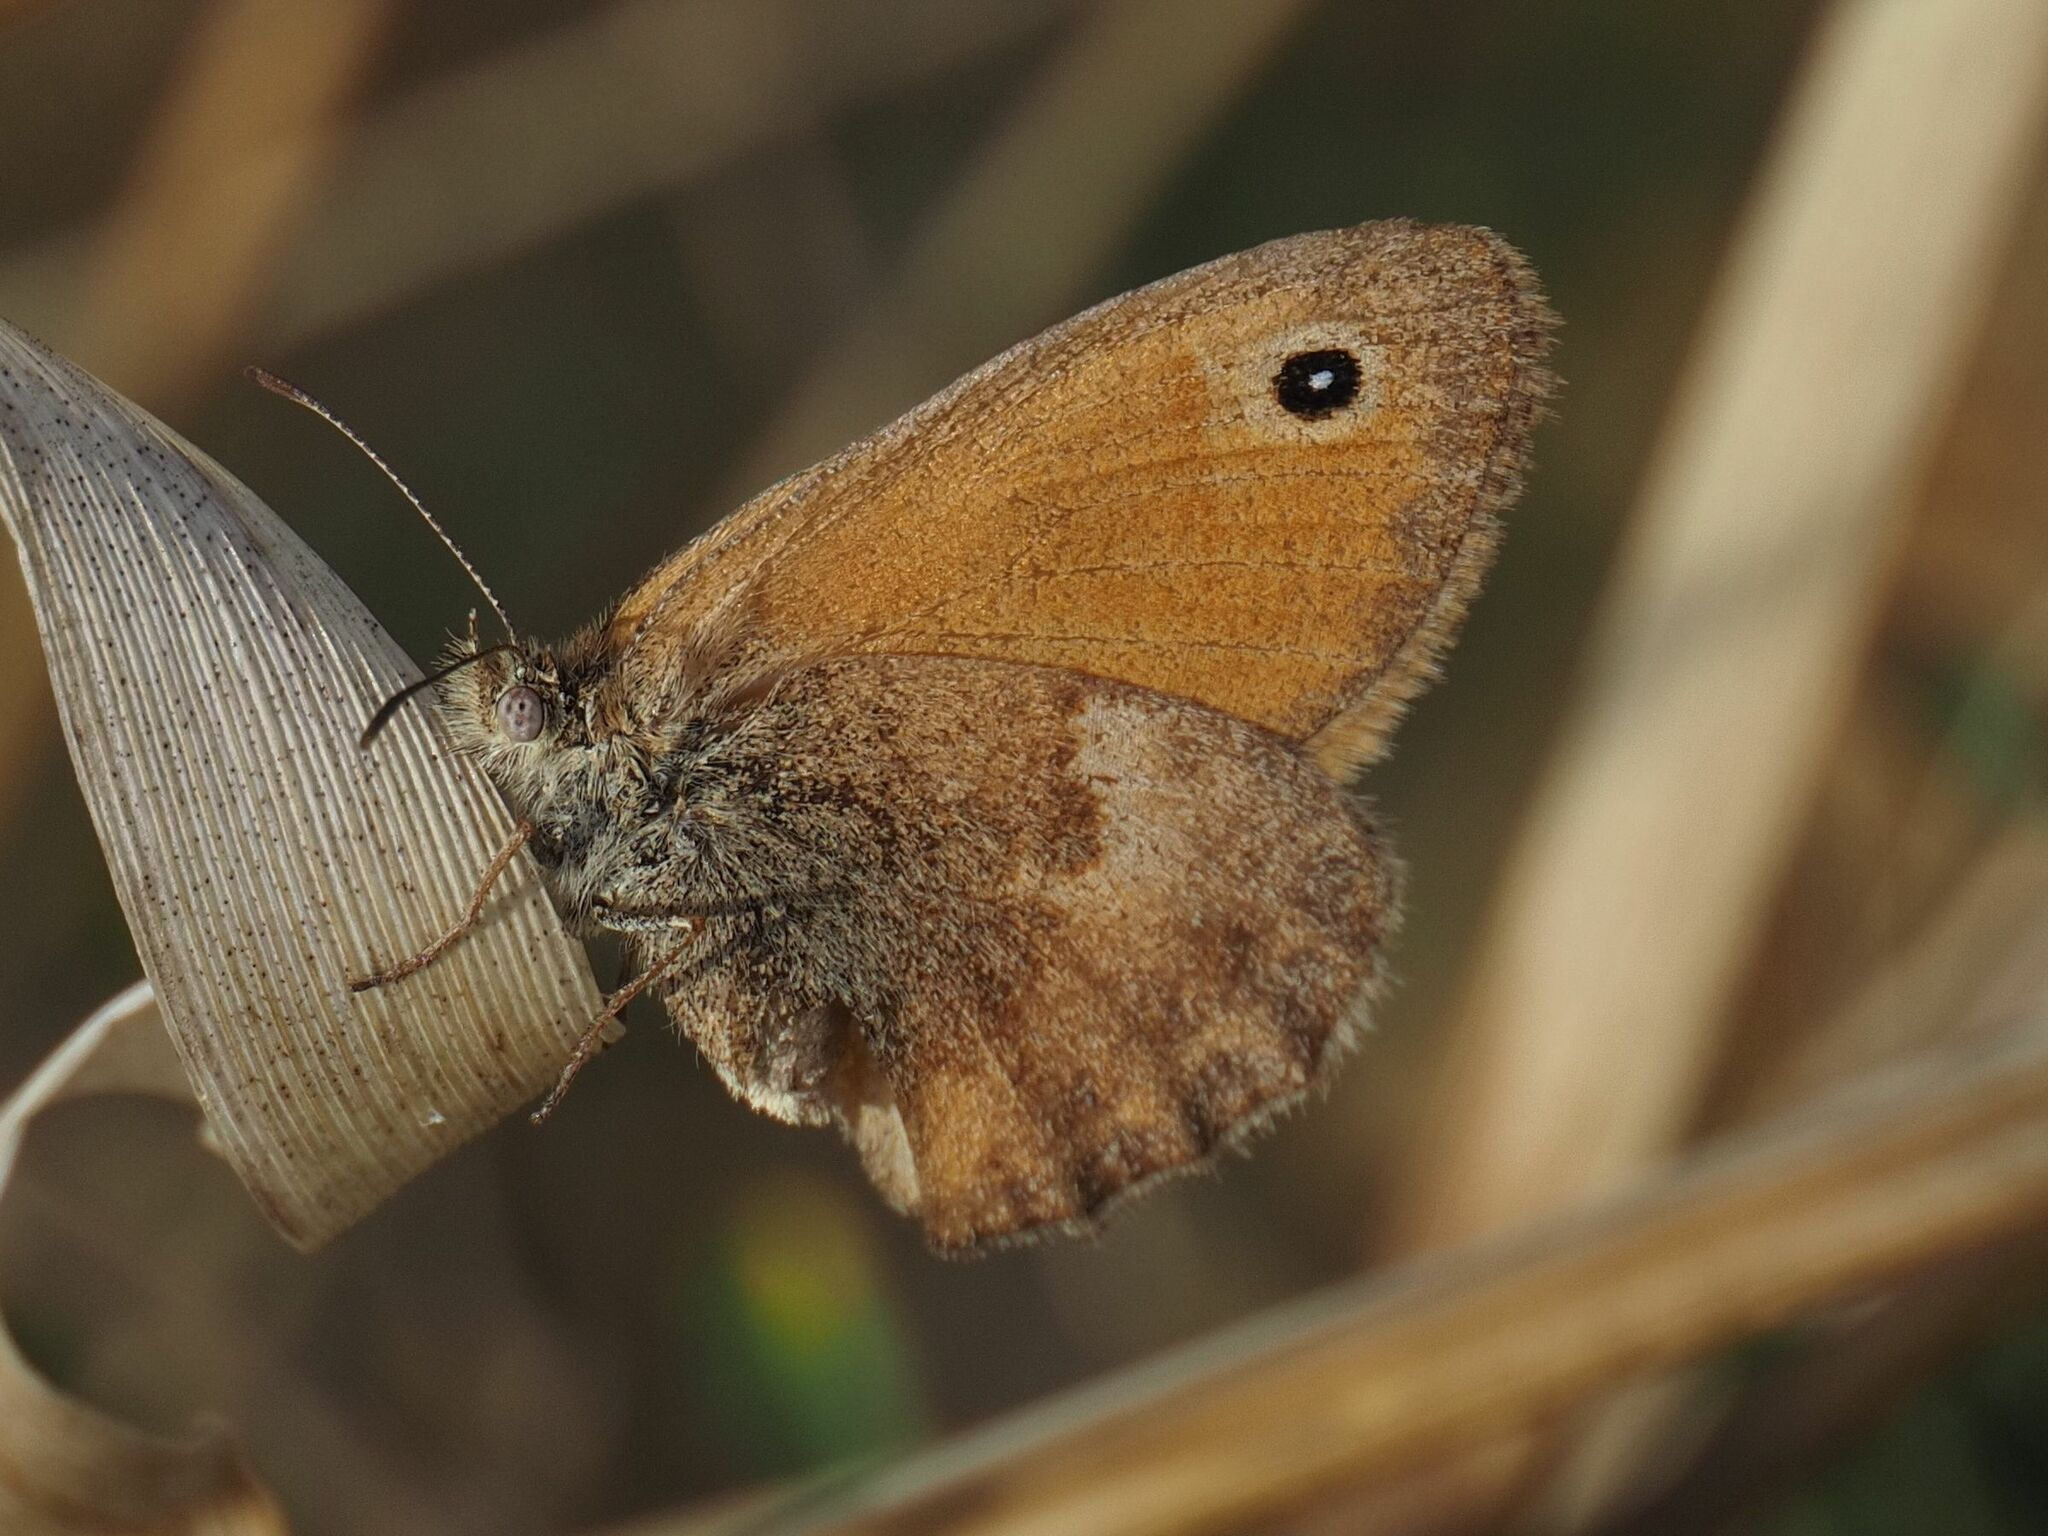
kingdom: Animalia
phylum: Arthropoda
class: Insecta
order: Lepidoptera
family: Nymphalidae
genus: Coenonympha
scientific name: Coenonympha pamphilus
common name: Small heath
